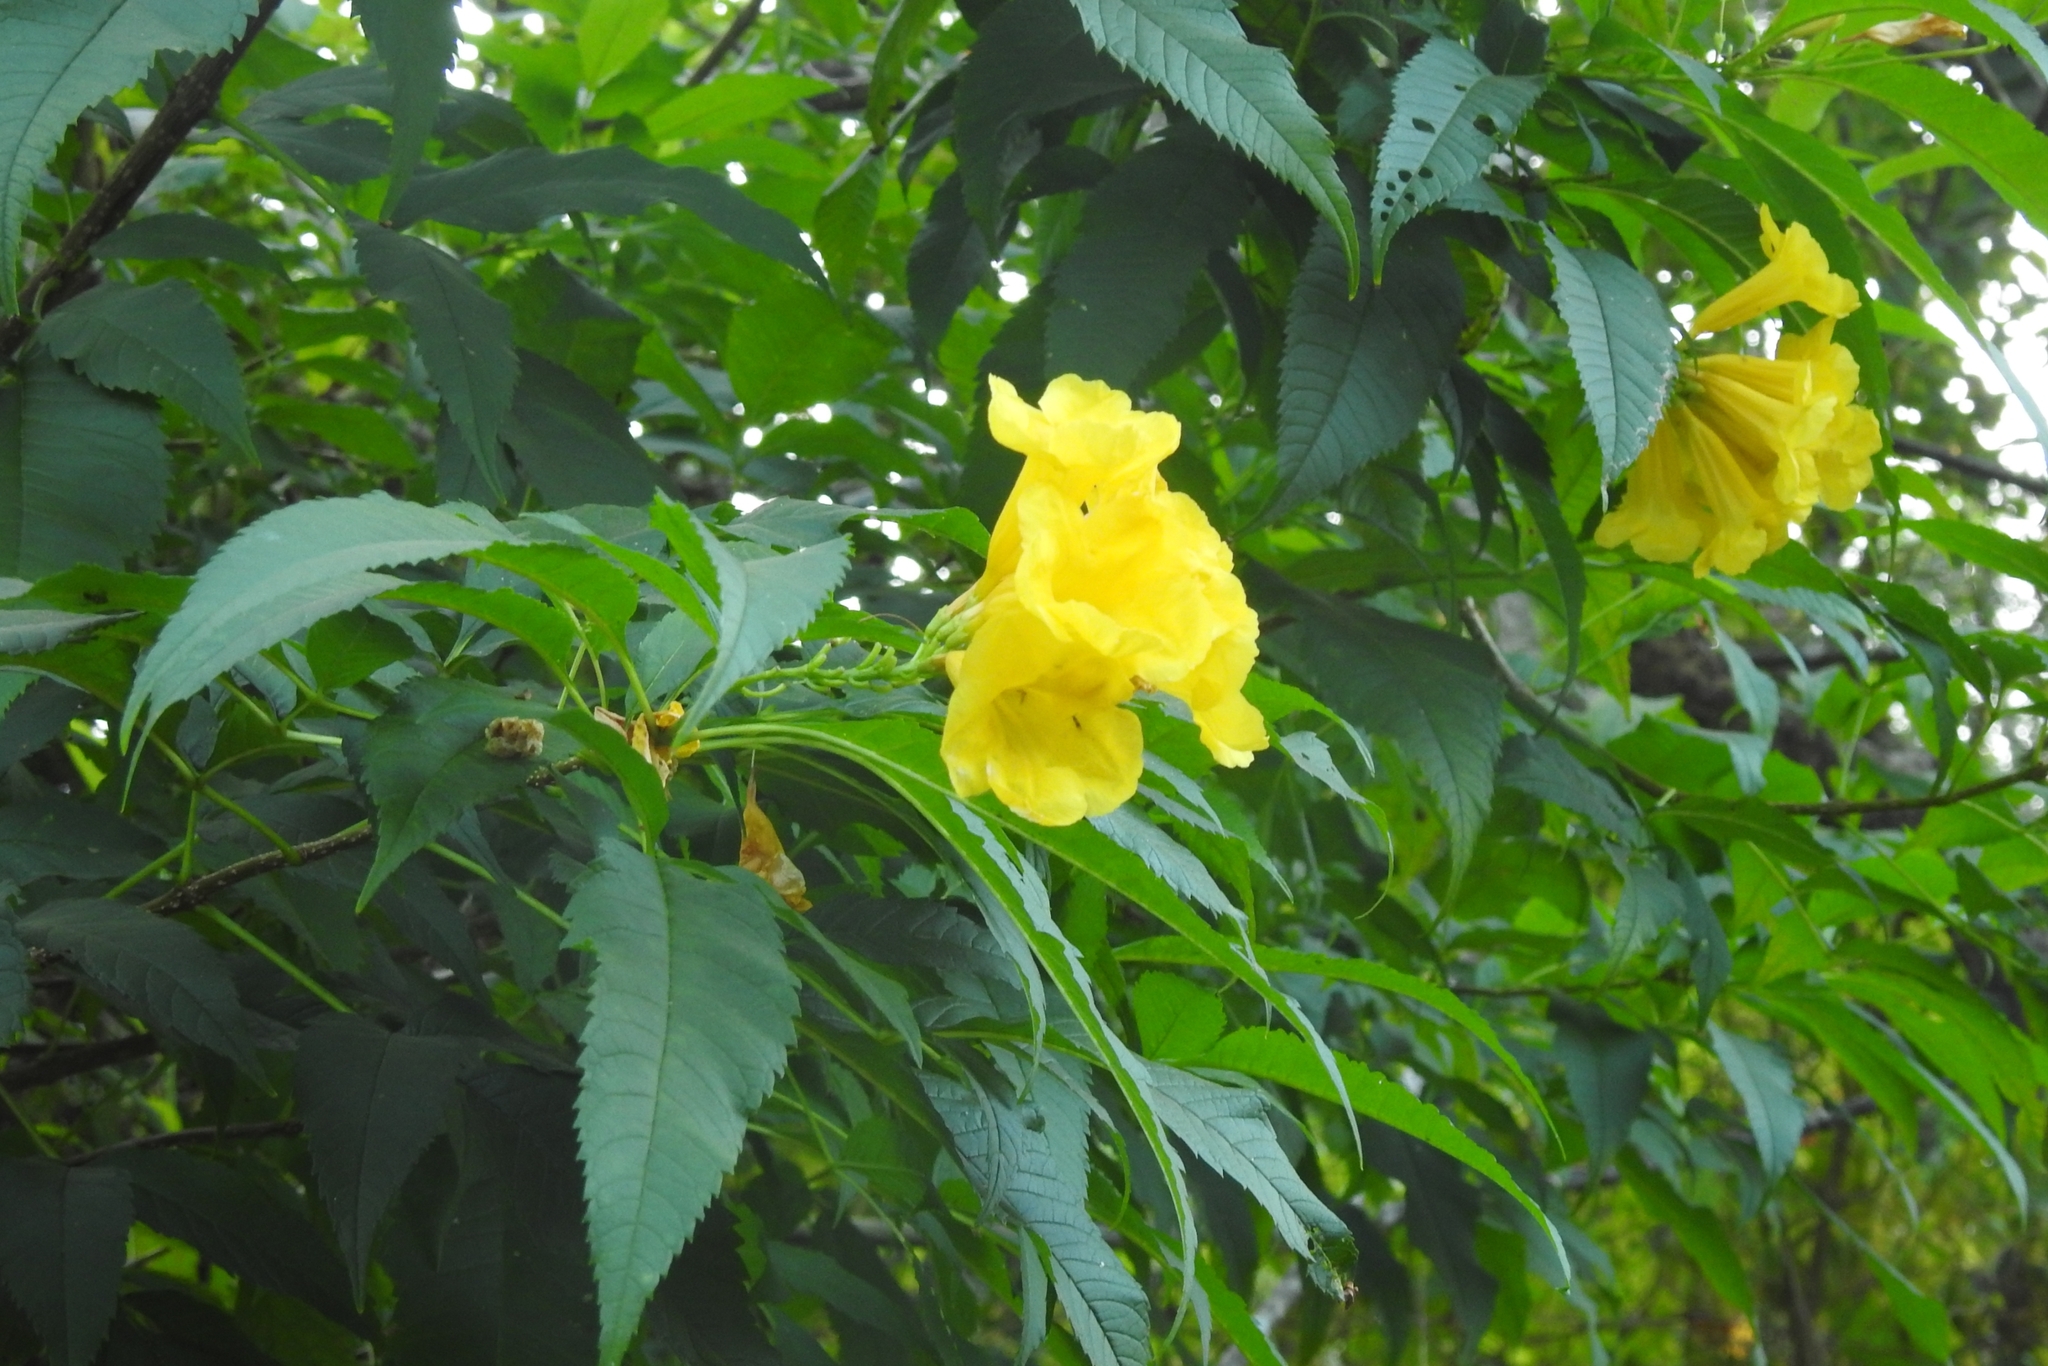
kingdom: Plantae
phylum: Tracheophyta
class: Magnoliopsida
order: Lamiales
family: Bignoniaceae
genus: Tecoma
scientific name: Tecoma stans
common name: Yellow trumpetbush
